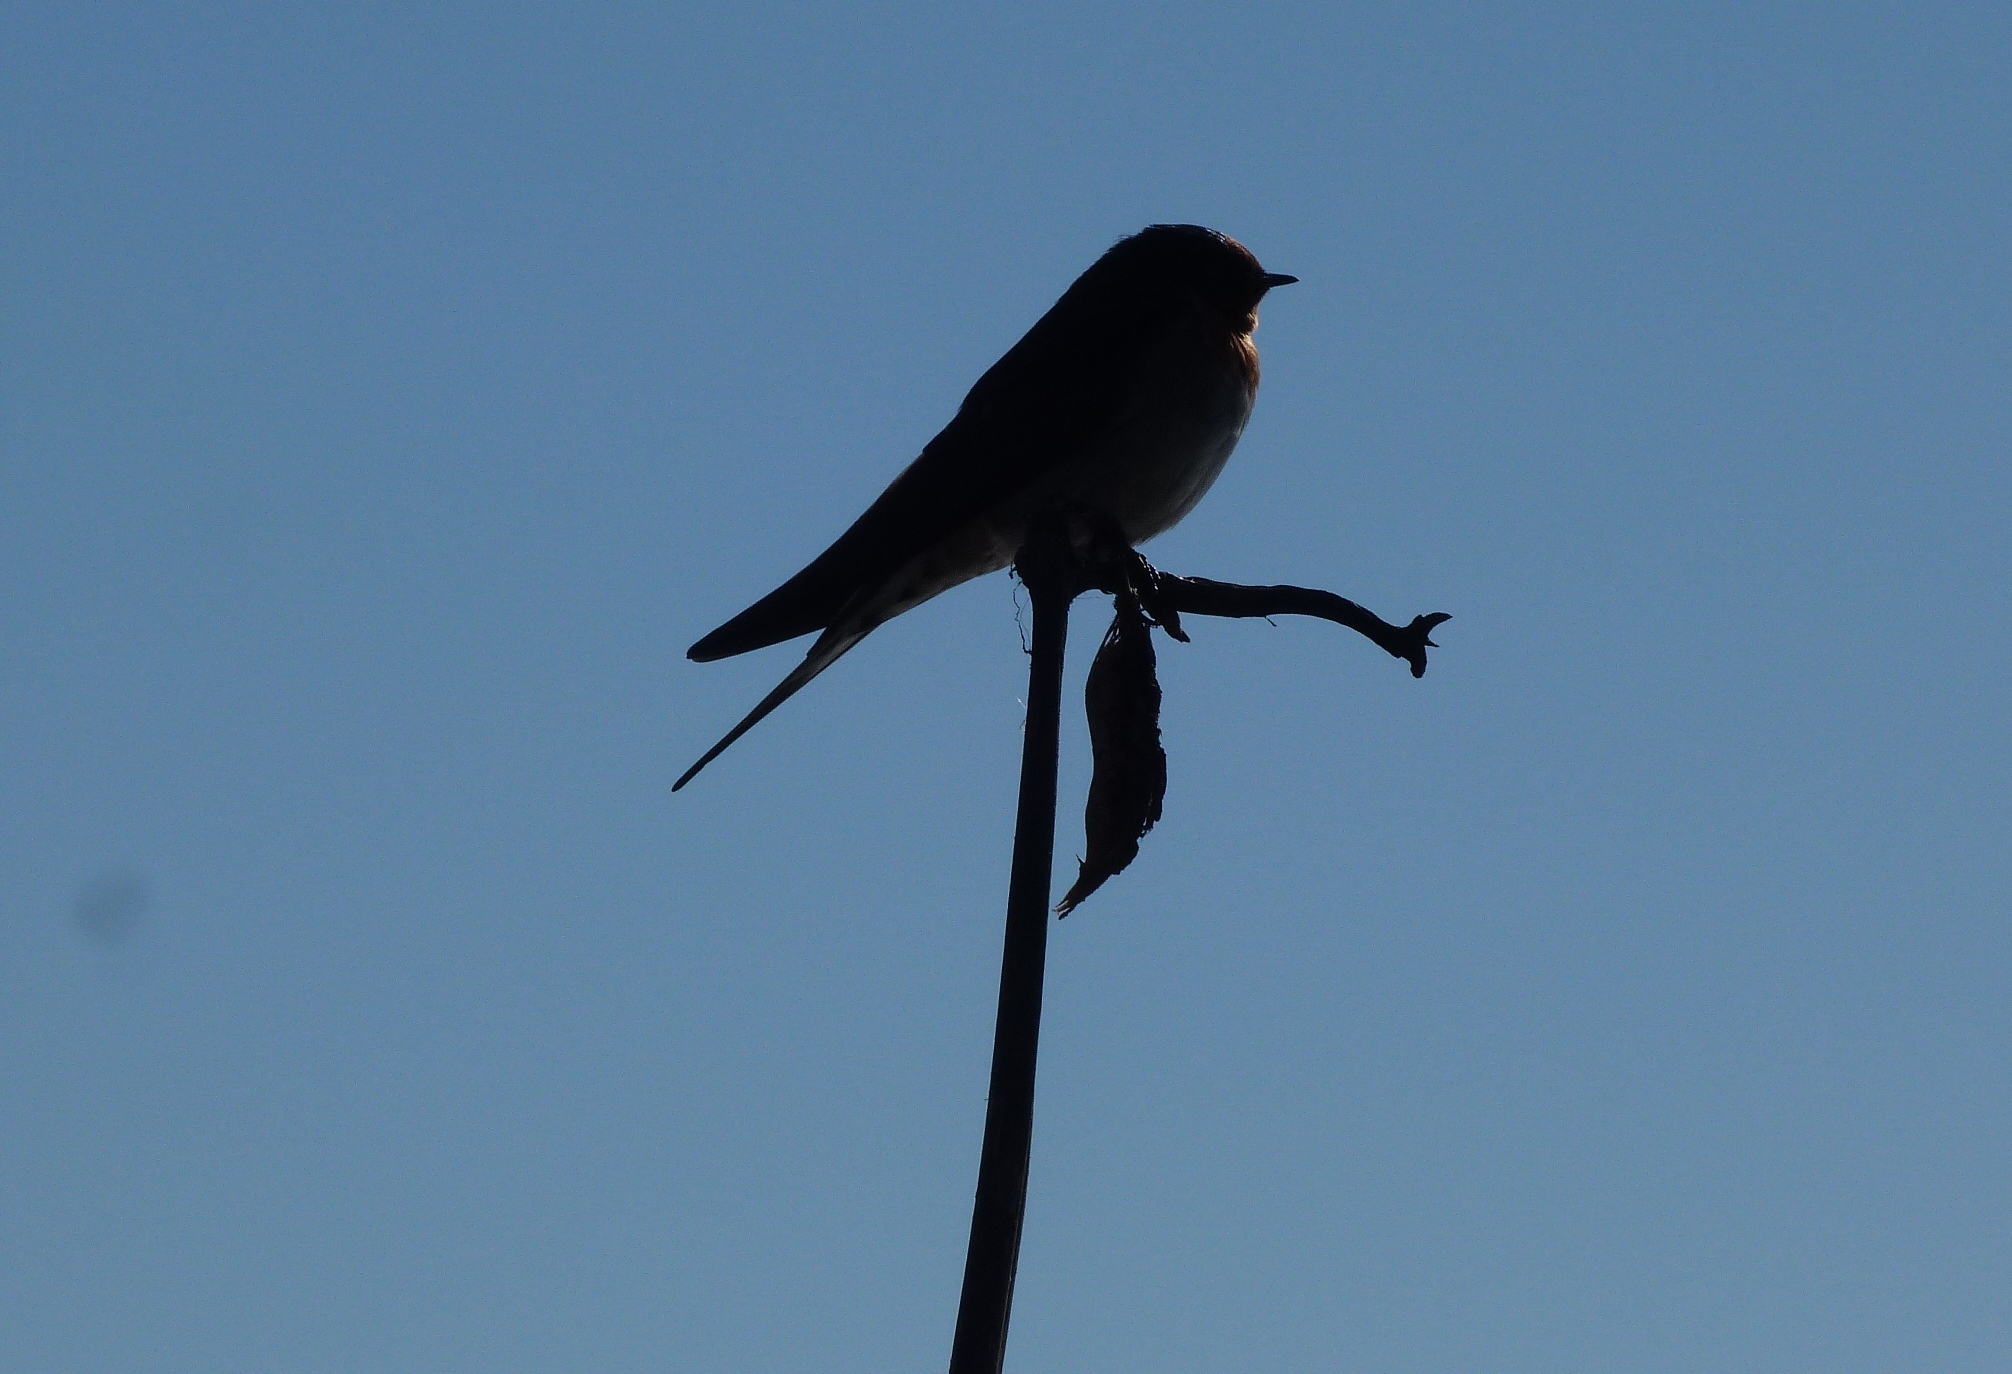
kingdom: Animalia
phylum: Chordata
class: Aves
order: Passeriformes
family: Hirundinidae
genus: Hirundo
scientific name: Hirundo neoxena
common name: Welcome swallow
